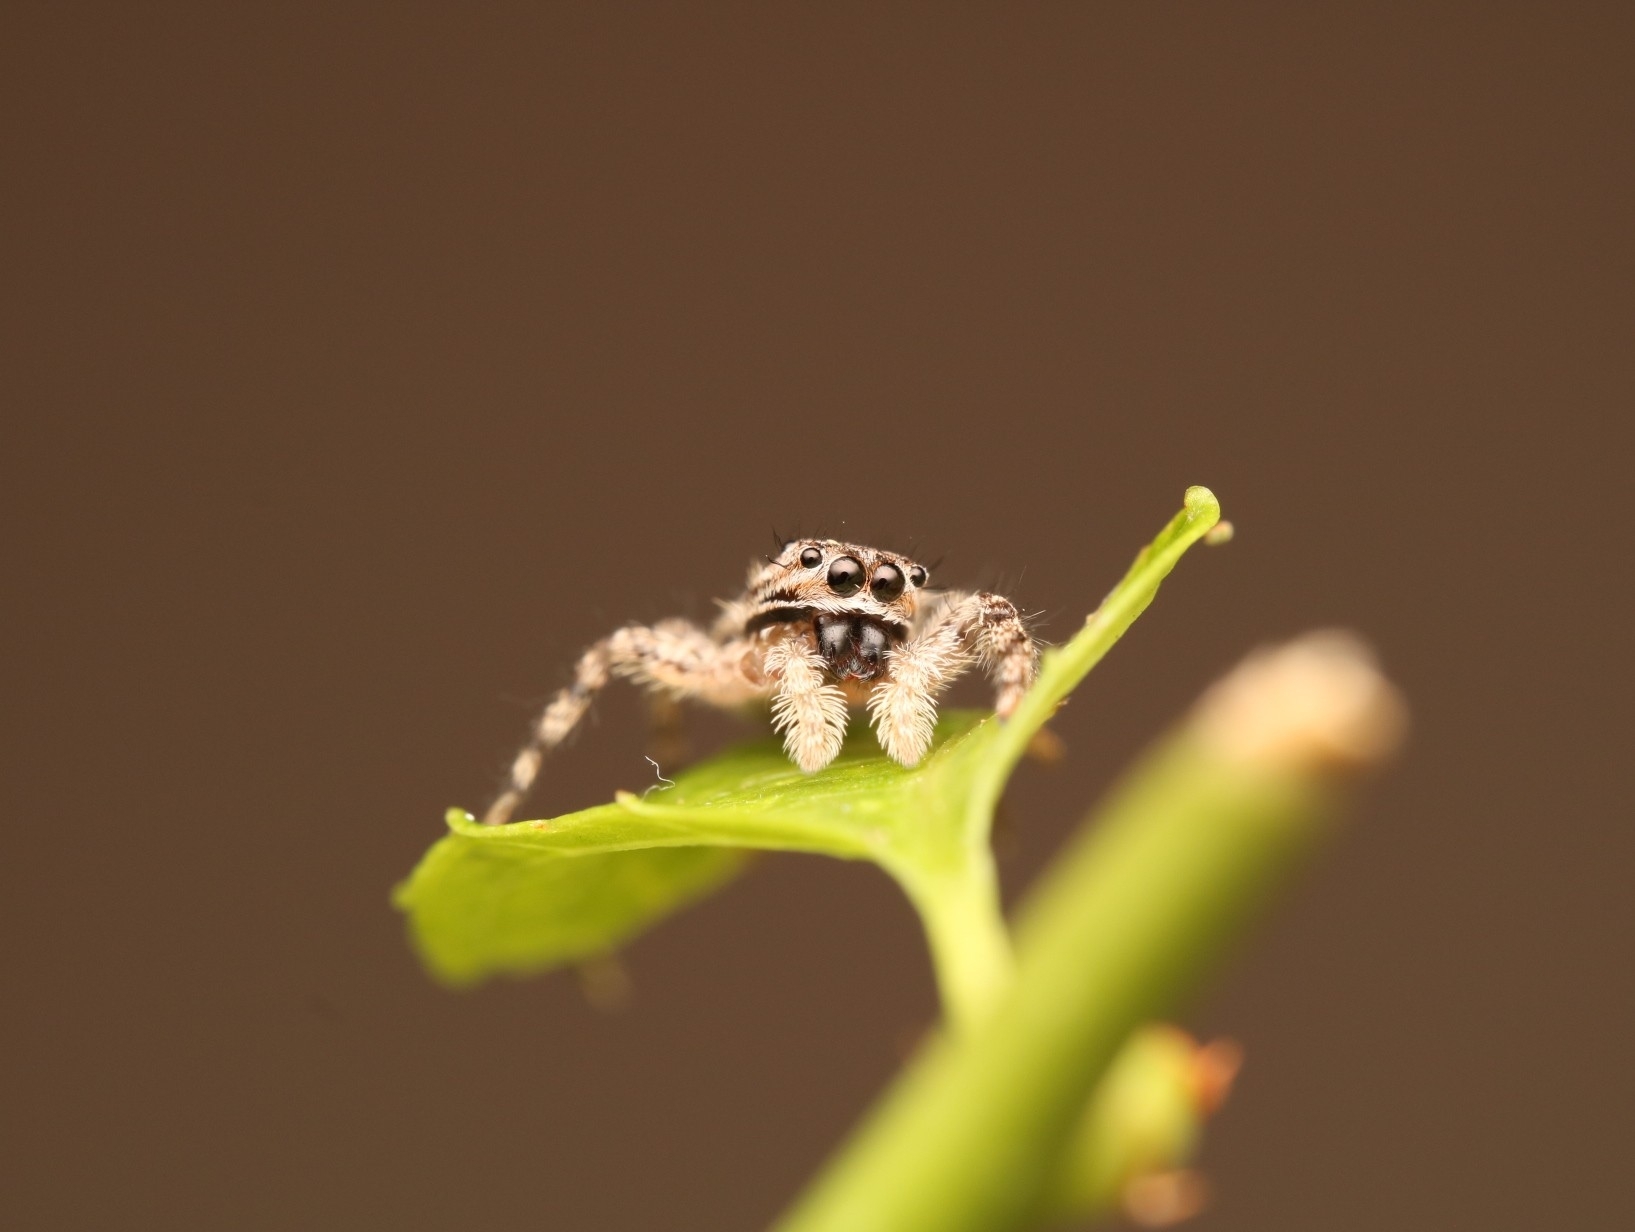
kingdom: Animalia
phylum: Arthropoda
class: Arachnida
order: Araneae
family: Salticidae
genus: Platycryptus
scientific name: Platycryptus undatus
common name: Tan jumping spider
